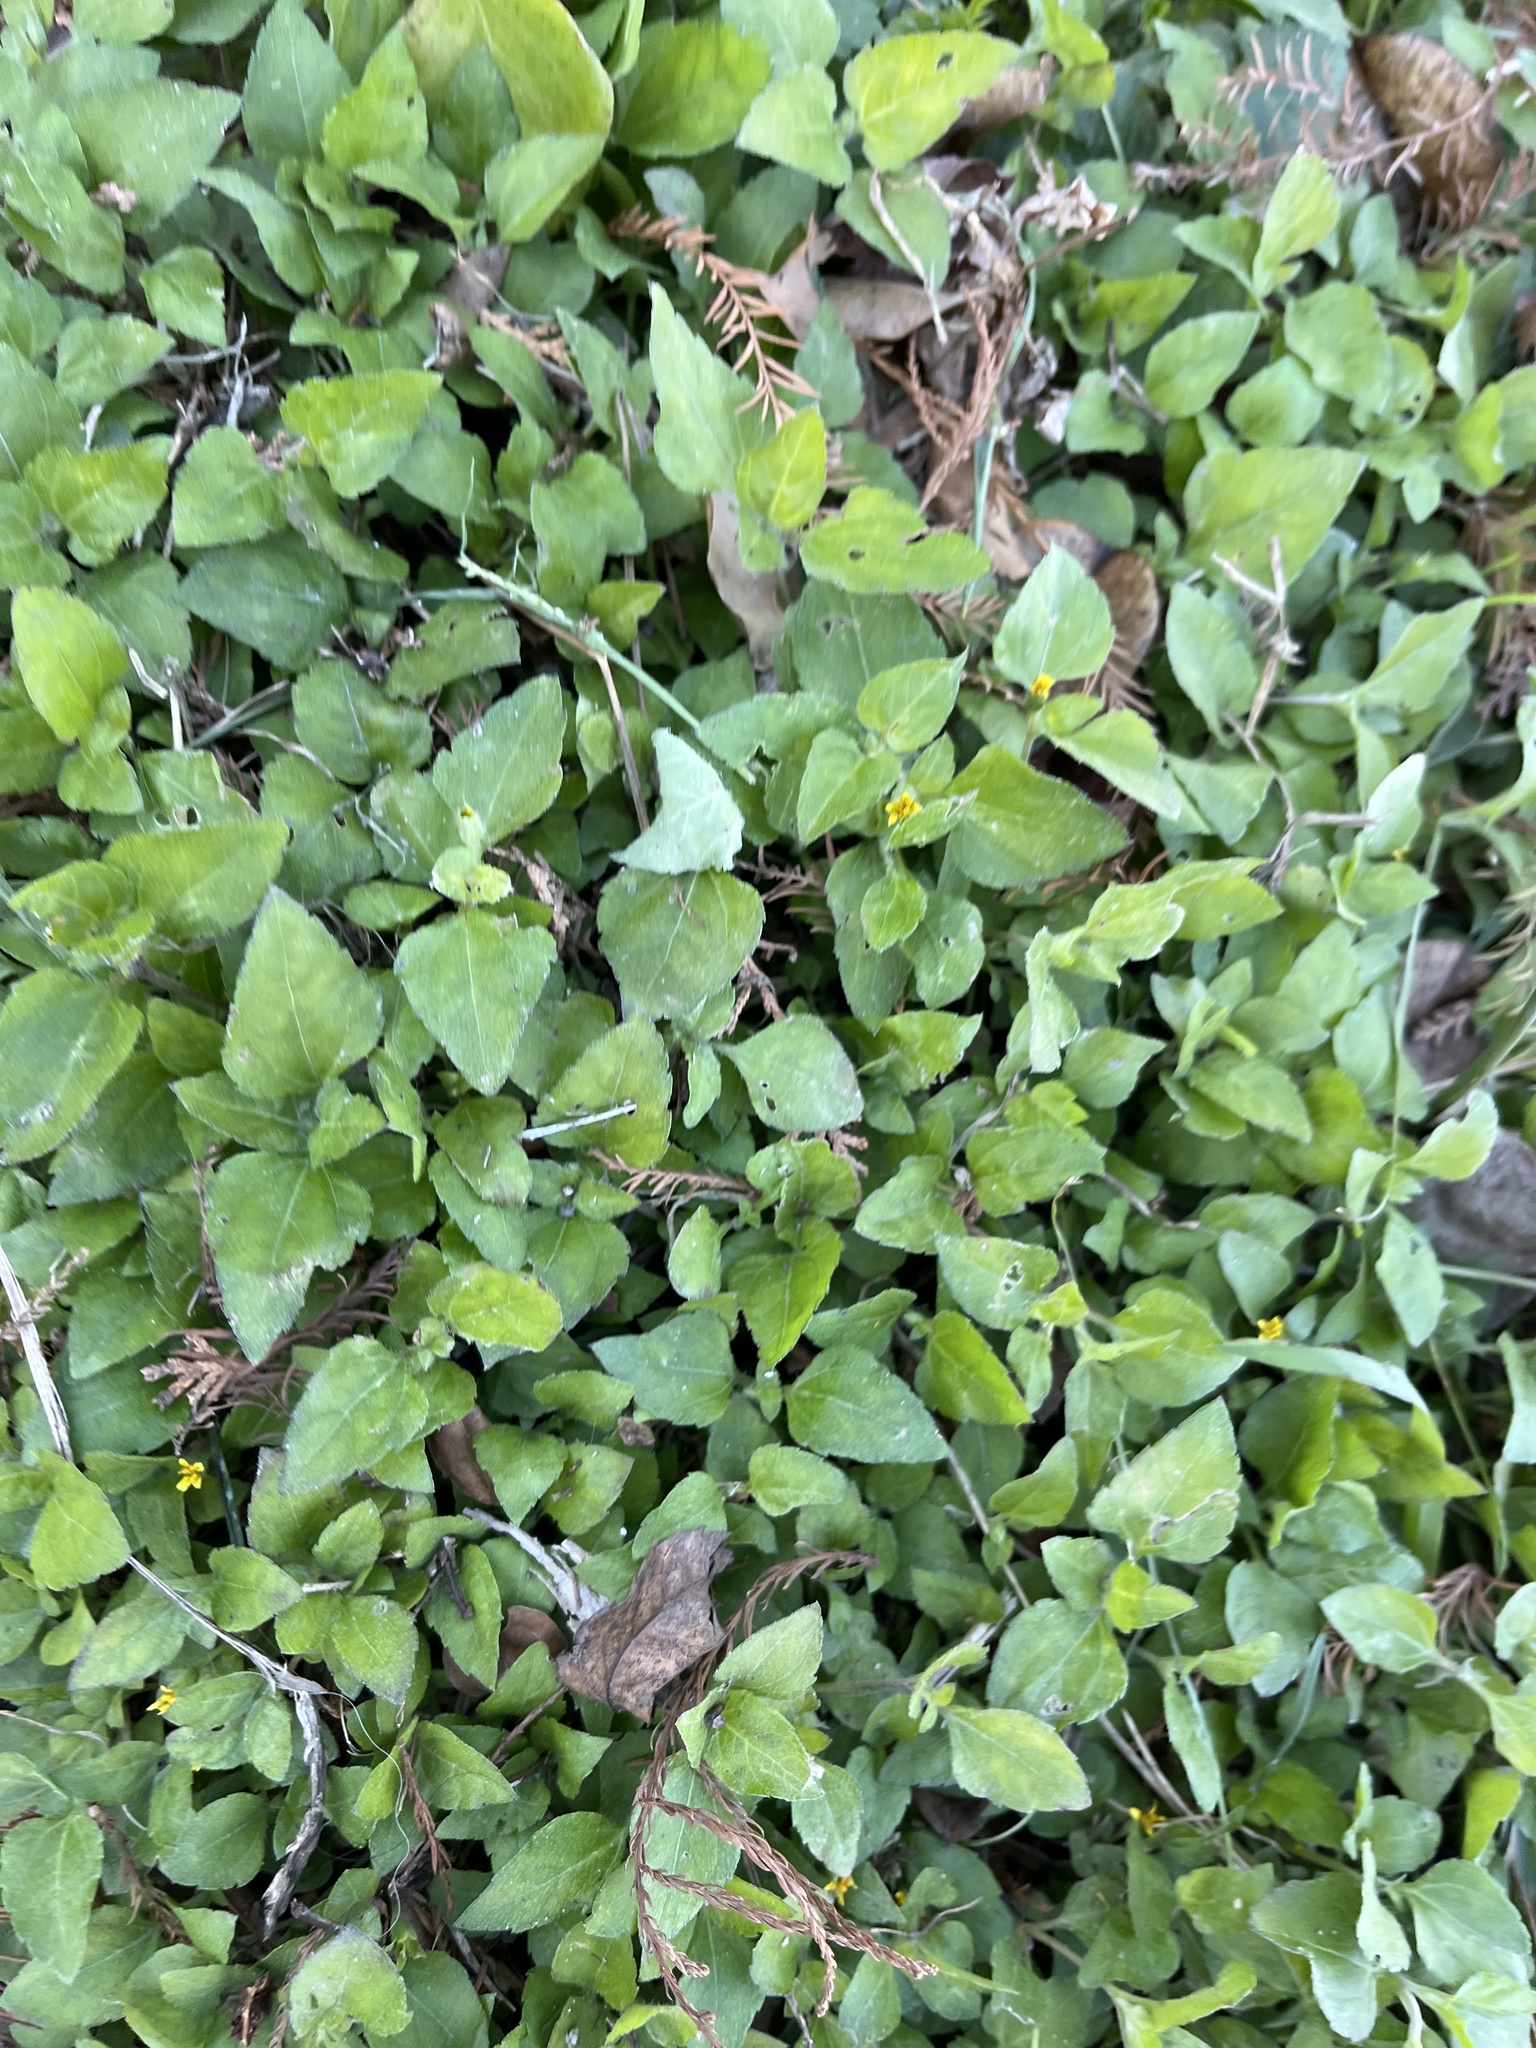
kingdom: Plantae
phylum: Tracheophyta
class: Magnoliopsida
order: Asterales
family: Asteraceae
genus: Calyptocarpus
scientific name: Calyptocarpus vialis
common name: Straggler daisy
